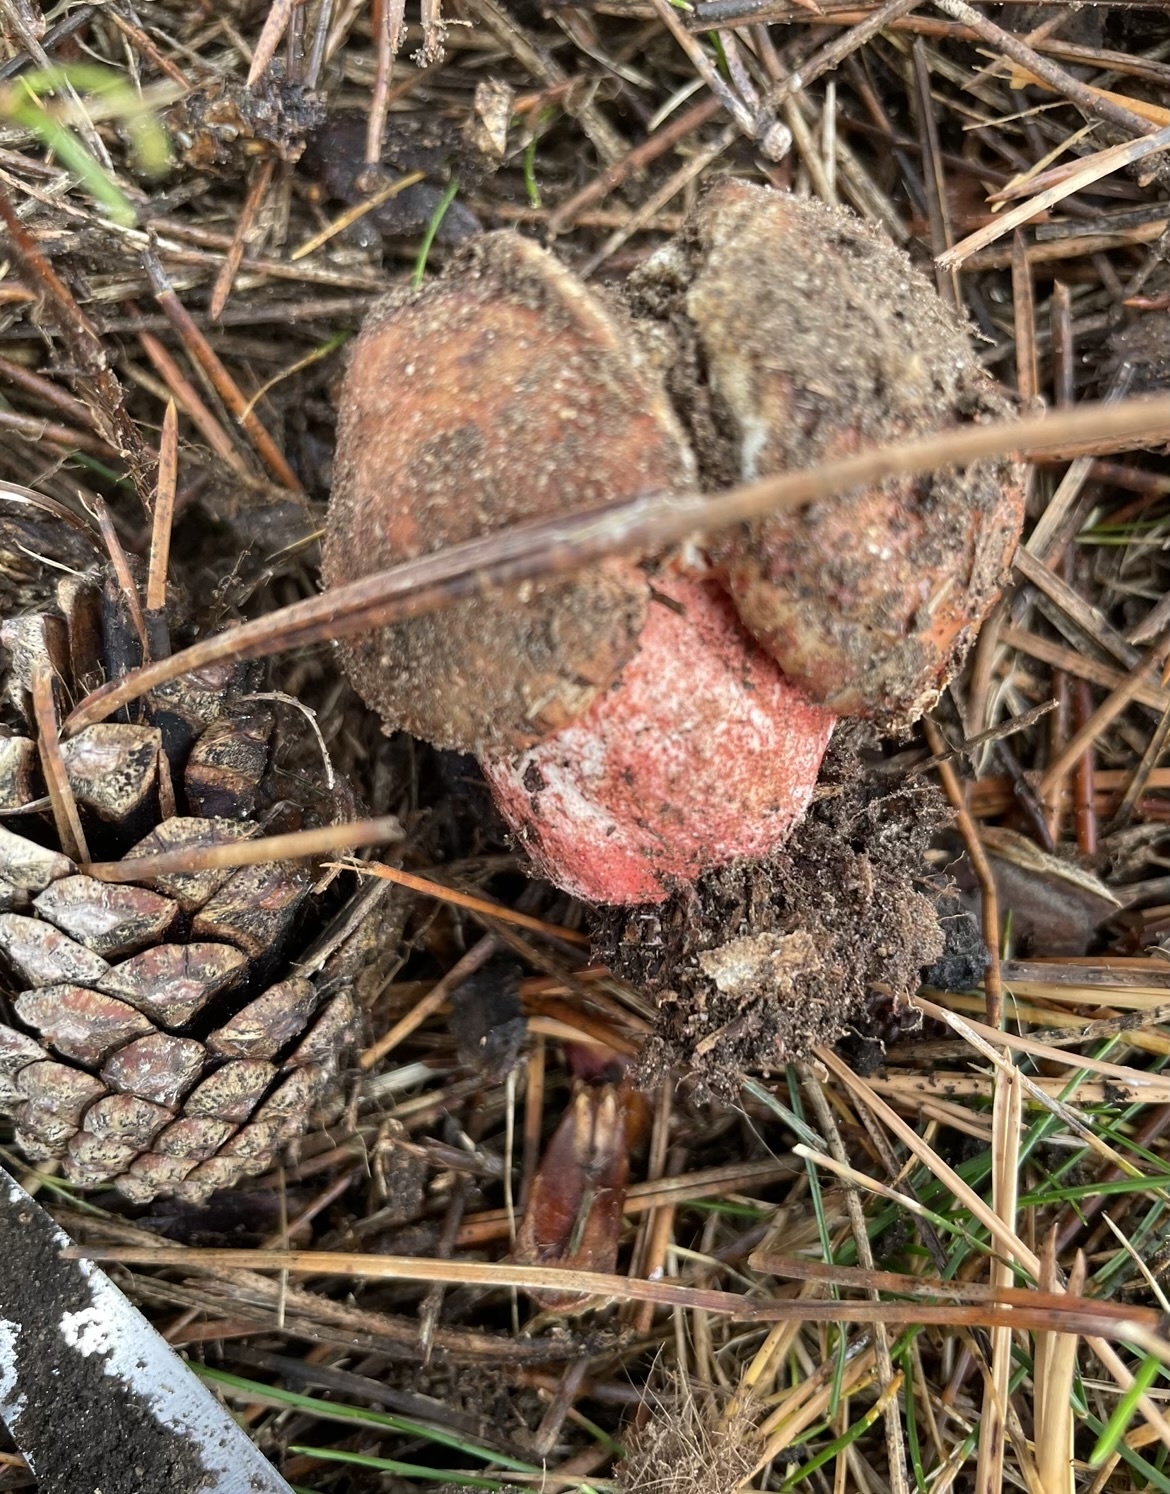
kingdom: Fungi
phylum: Basidiomycota
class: Agaricomycetes
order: Russulales
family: Russulaceae
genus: Russula
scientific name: Russula ventricosipes
